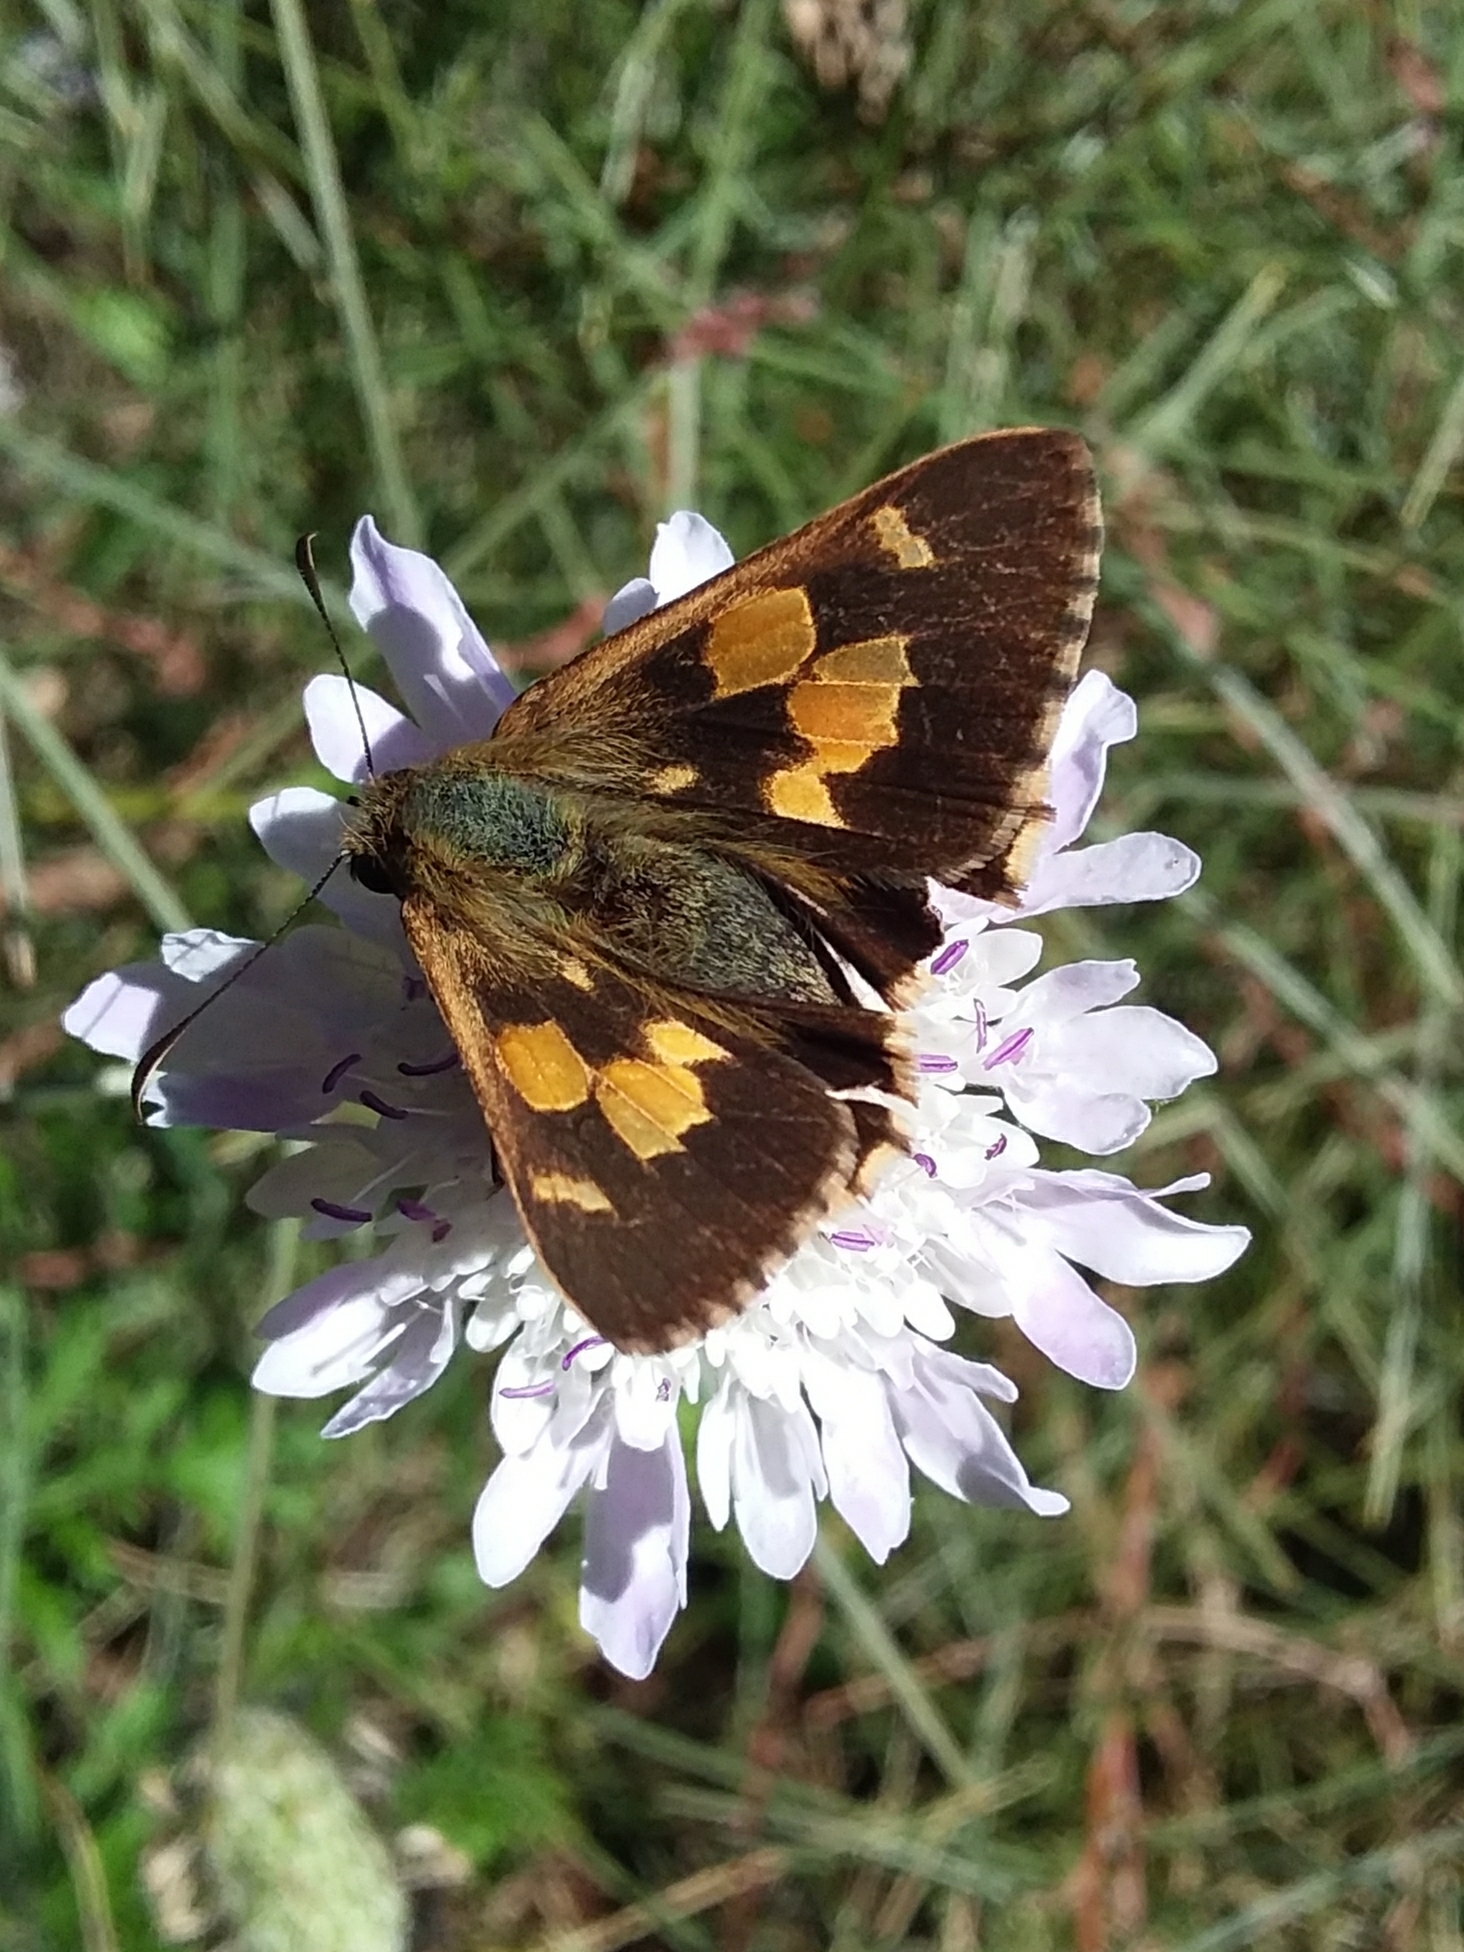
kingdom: Animalia
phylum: Arthropoda
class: Insecta
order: Lepidoptera
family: Hesperiidae
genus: Hesperilla
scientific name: Hesperilla idothea
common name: Flame sedge-skipper
